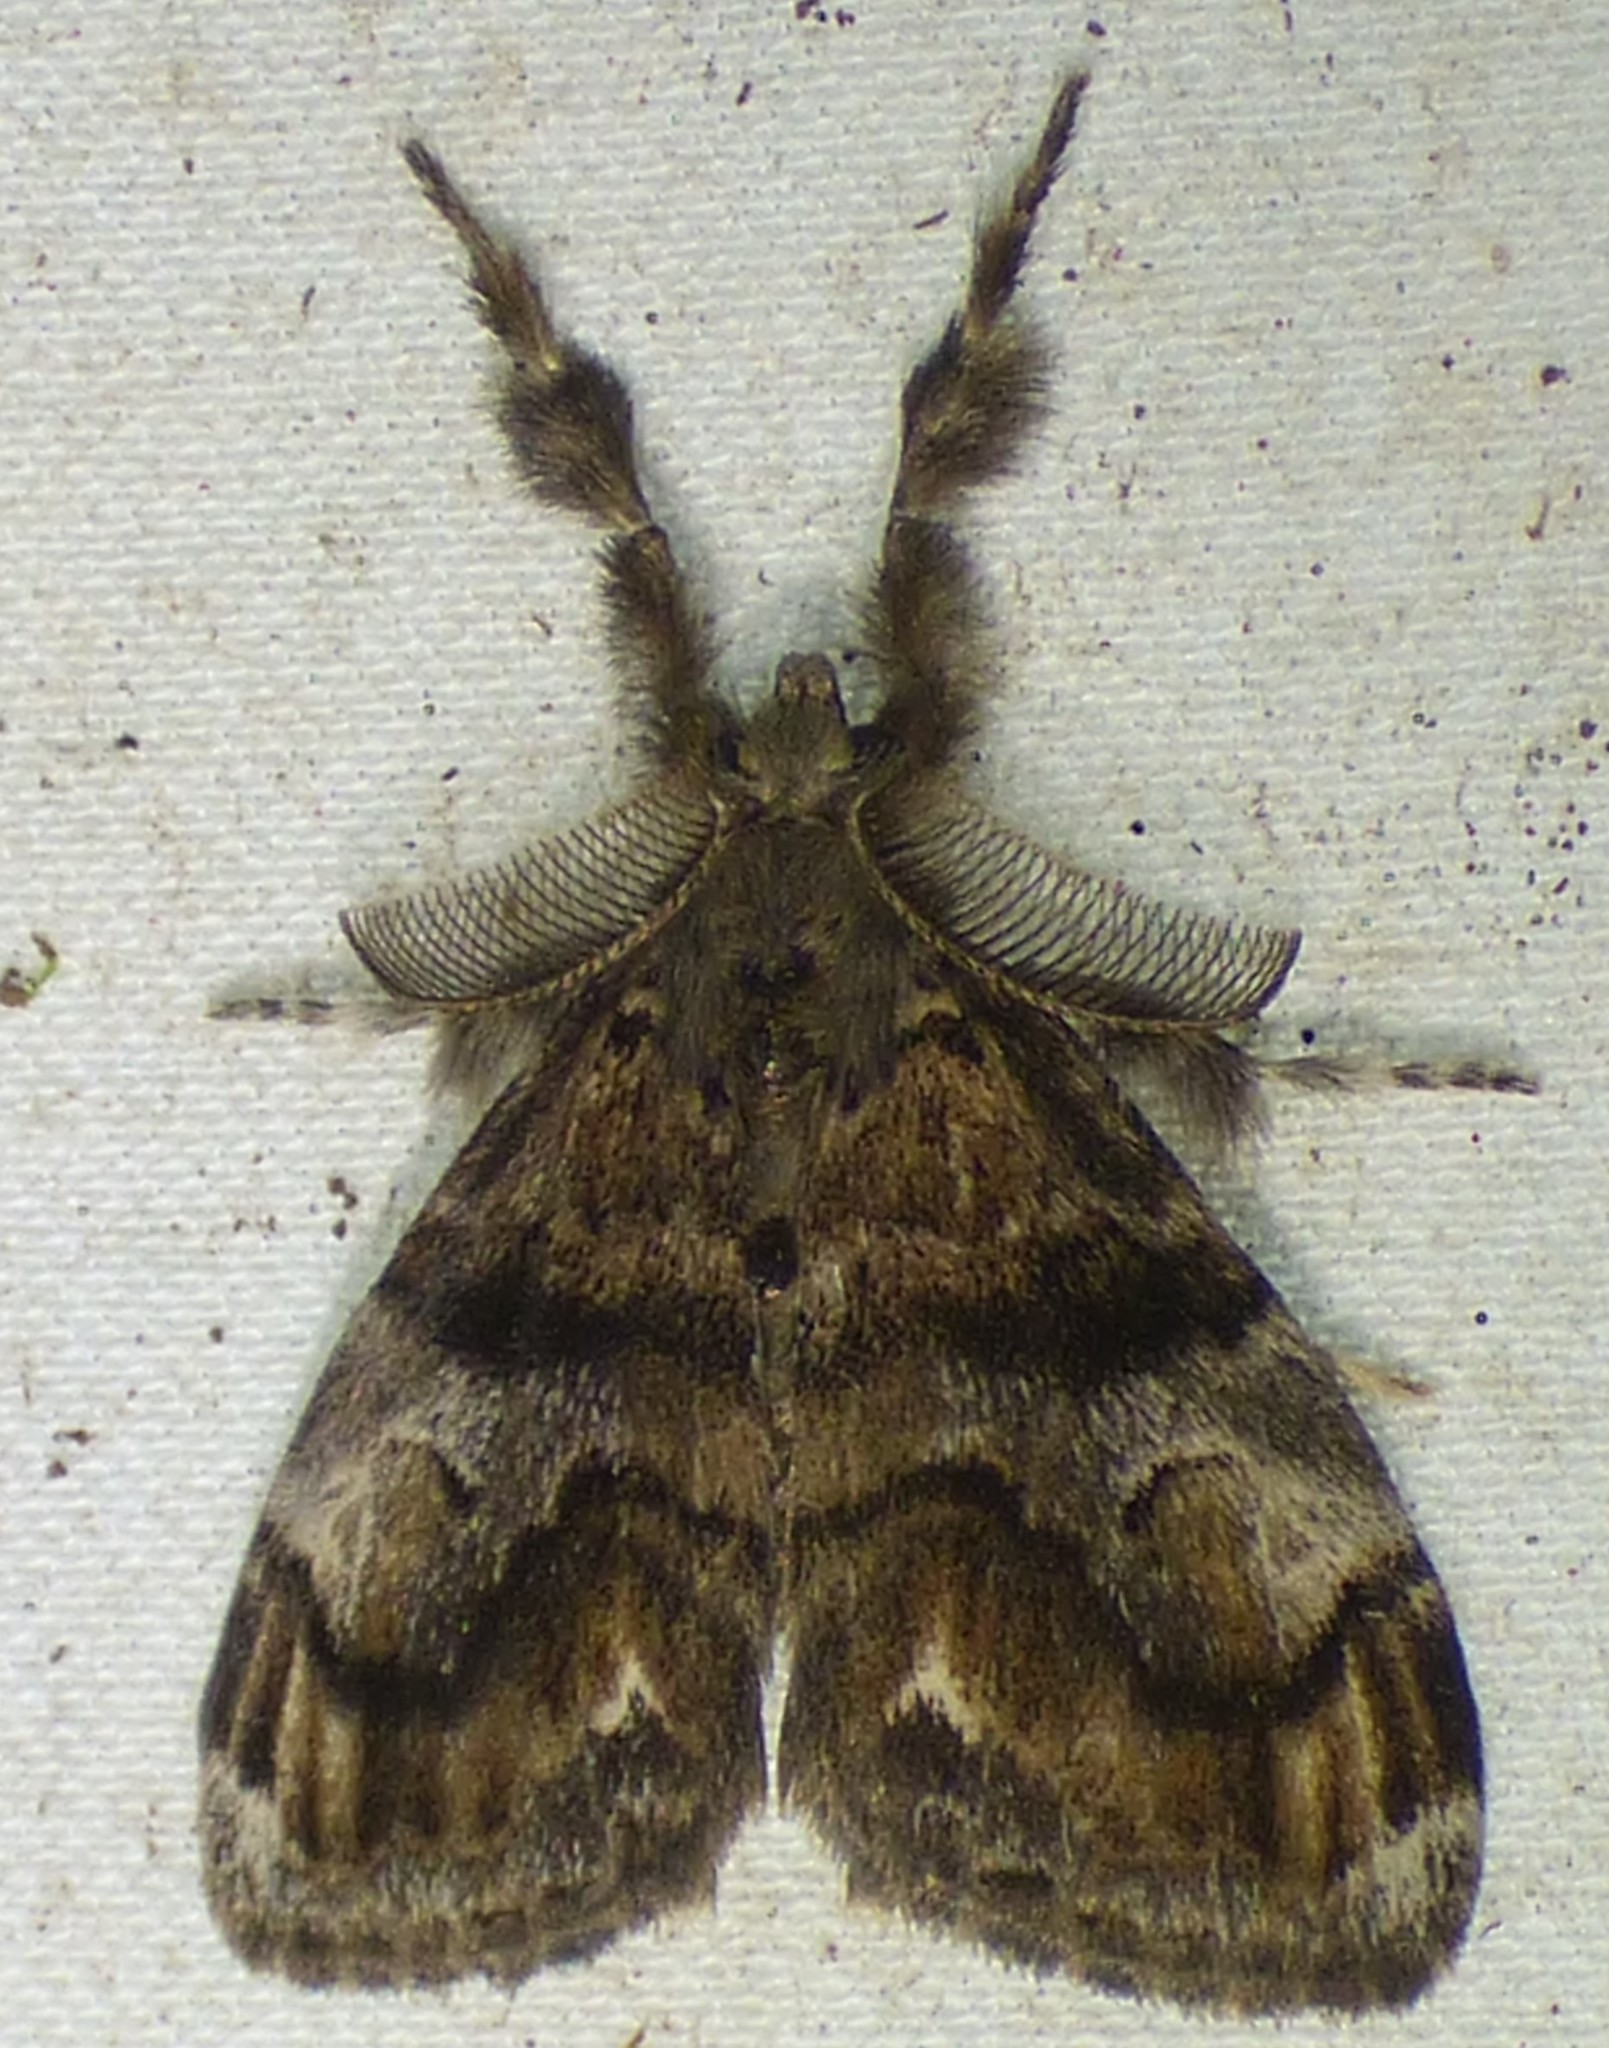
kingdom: Animalia
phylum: Arthropoda
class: Insecta
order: Lepidoptera
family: Erebidae
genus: Orgyia
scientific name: Orgyia definita
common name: Definite tussock moth
